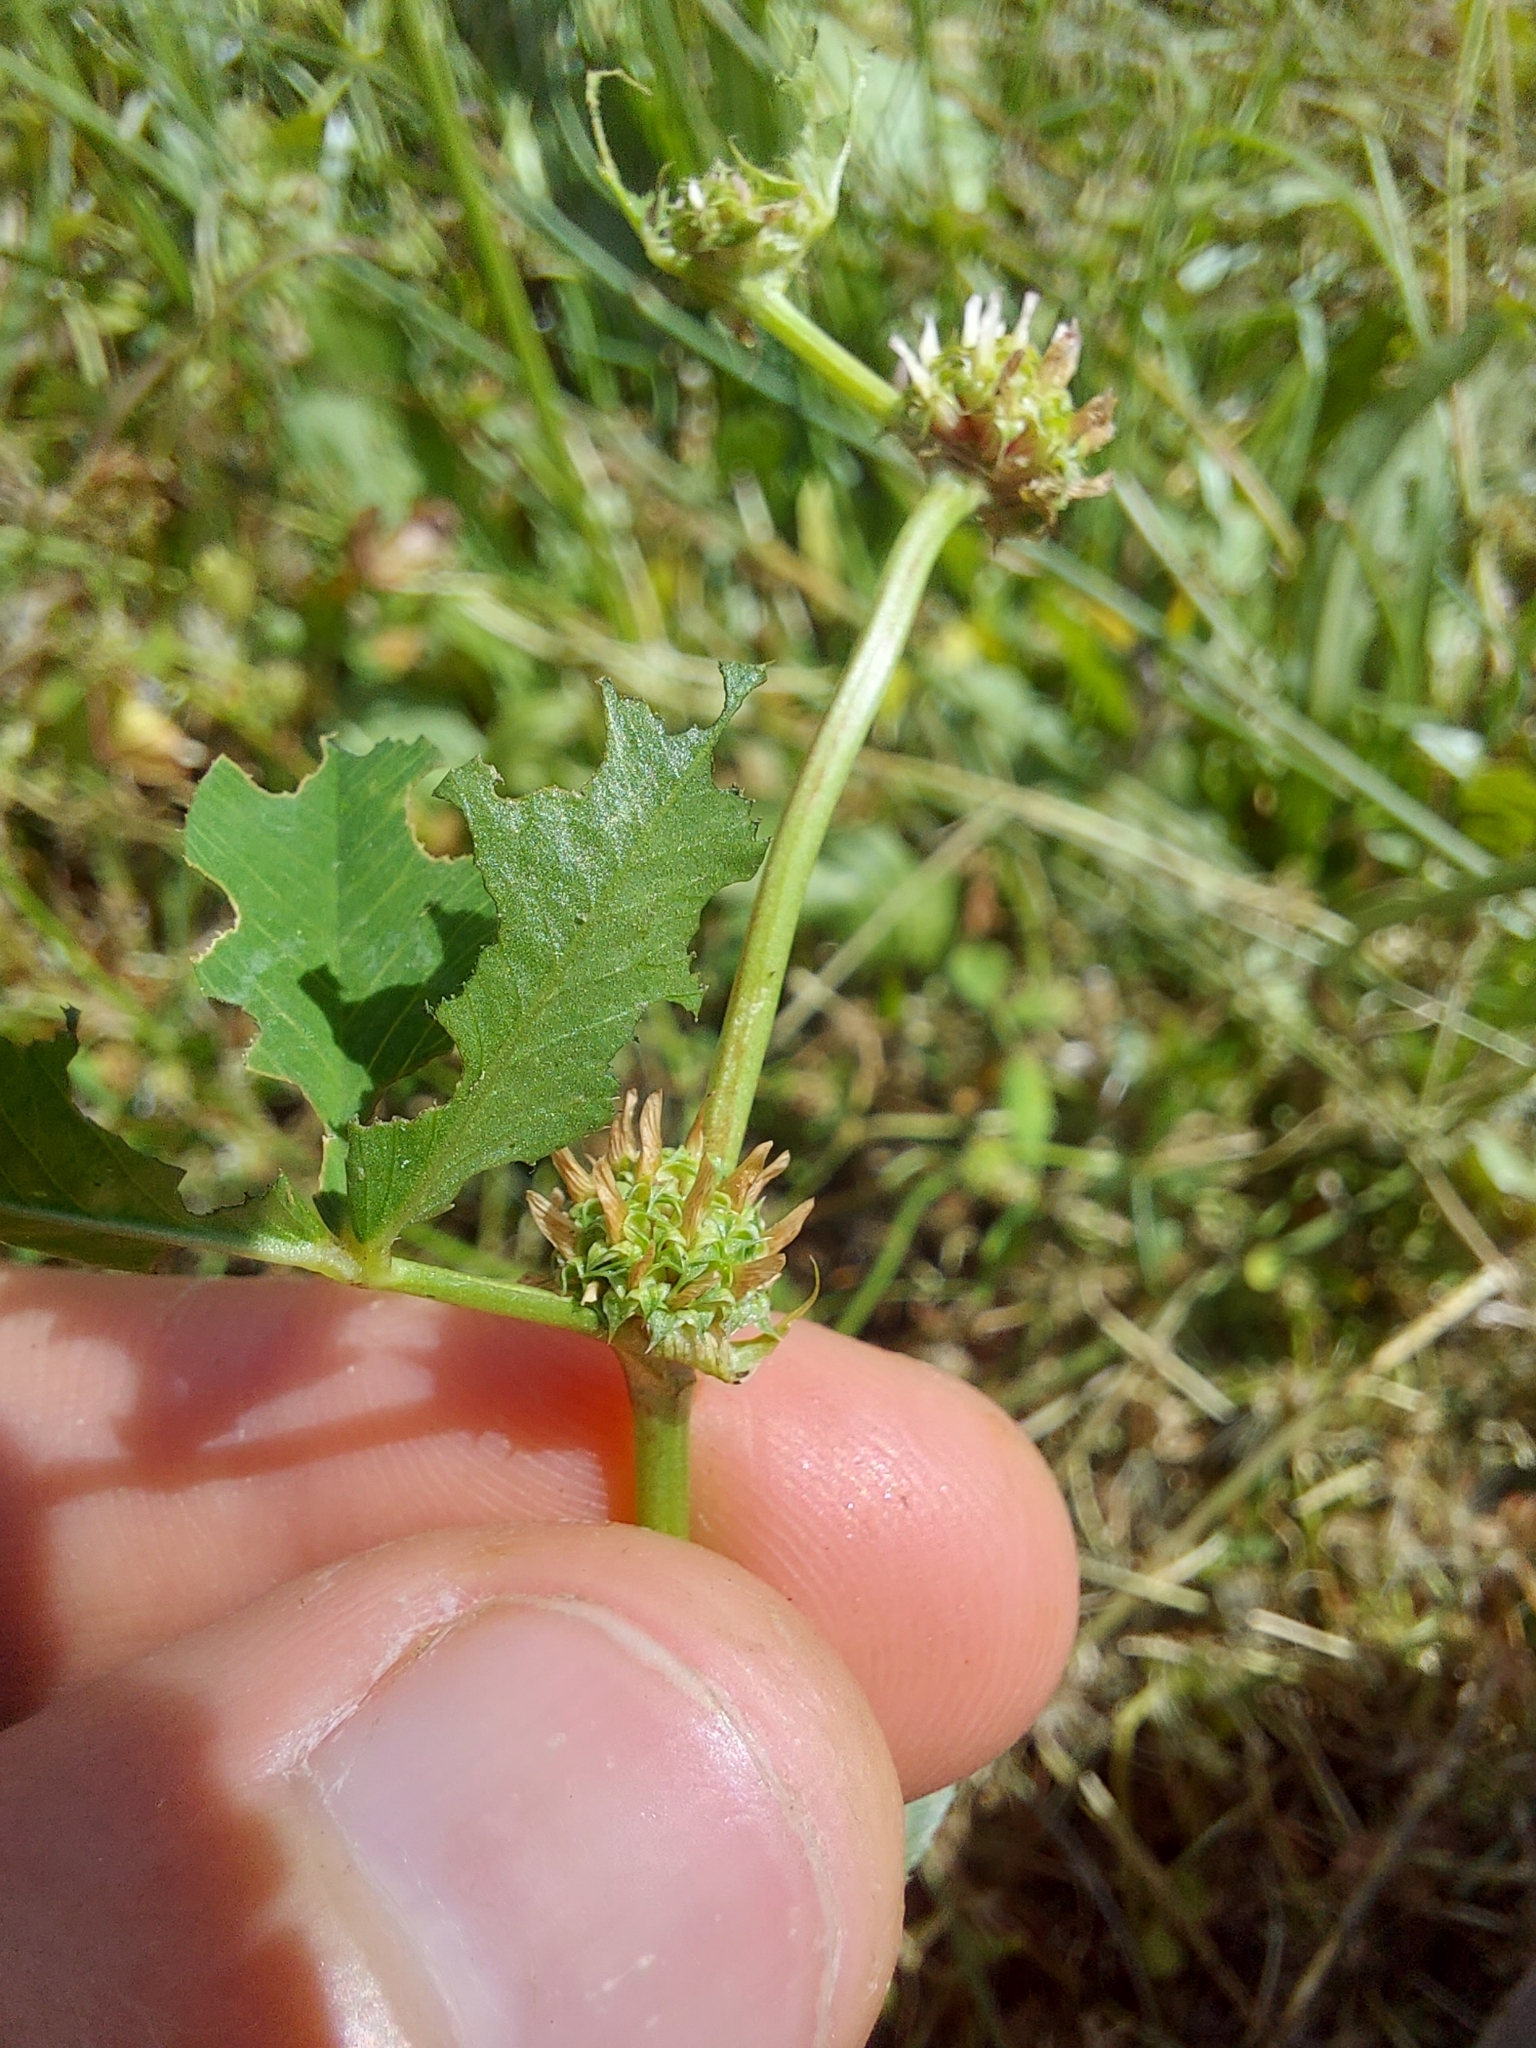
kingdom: Plantae
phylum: Tracheophyta
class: Magnoliopsida
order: Fabales
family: Fabaceae
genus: Trifolium
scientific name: Trifolium glomeratum
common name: Clustered clover
